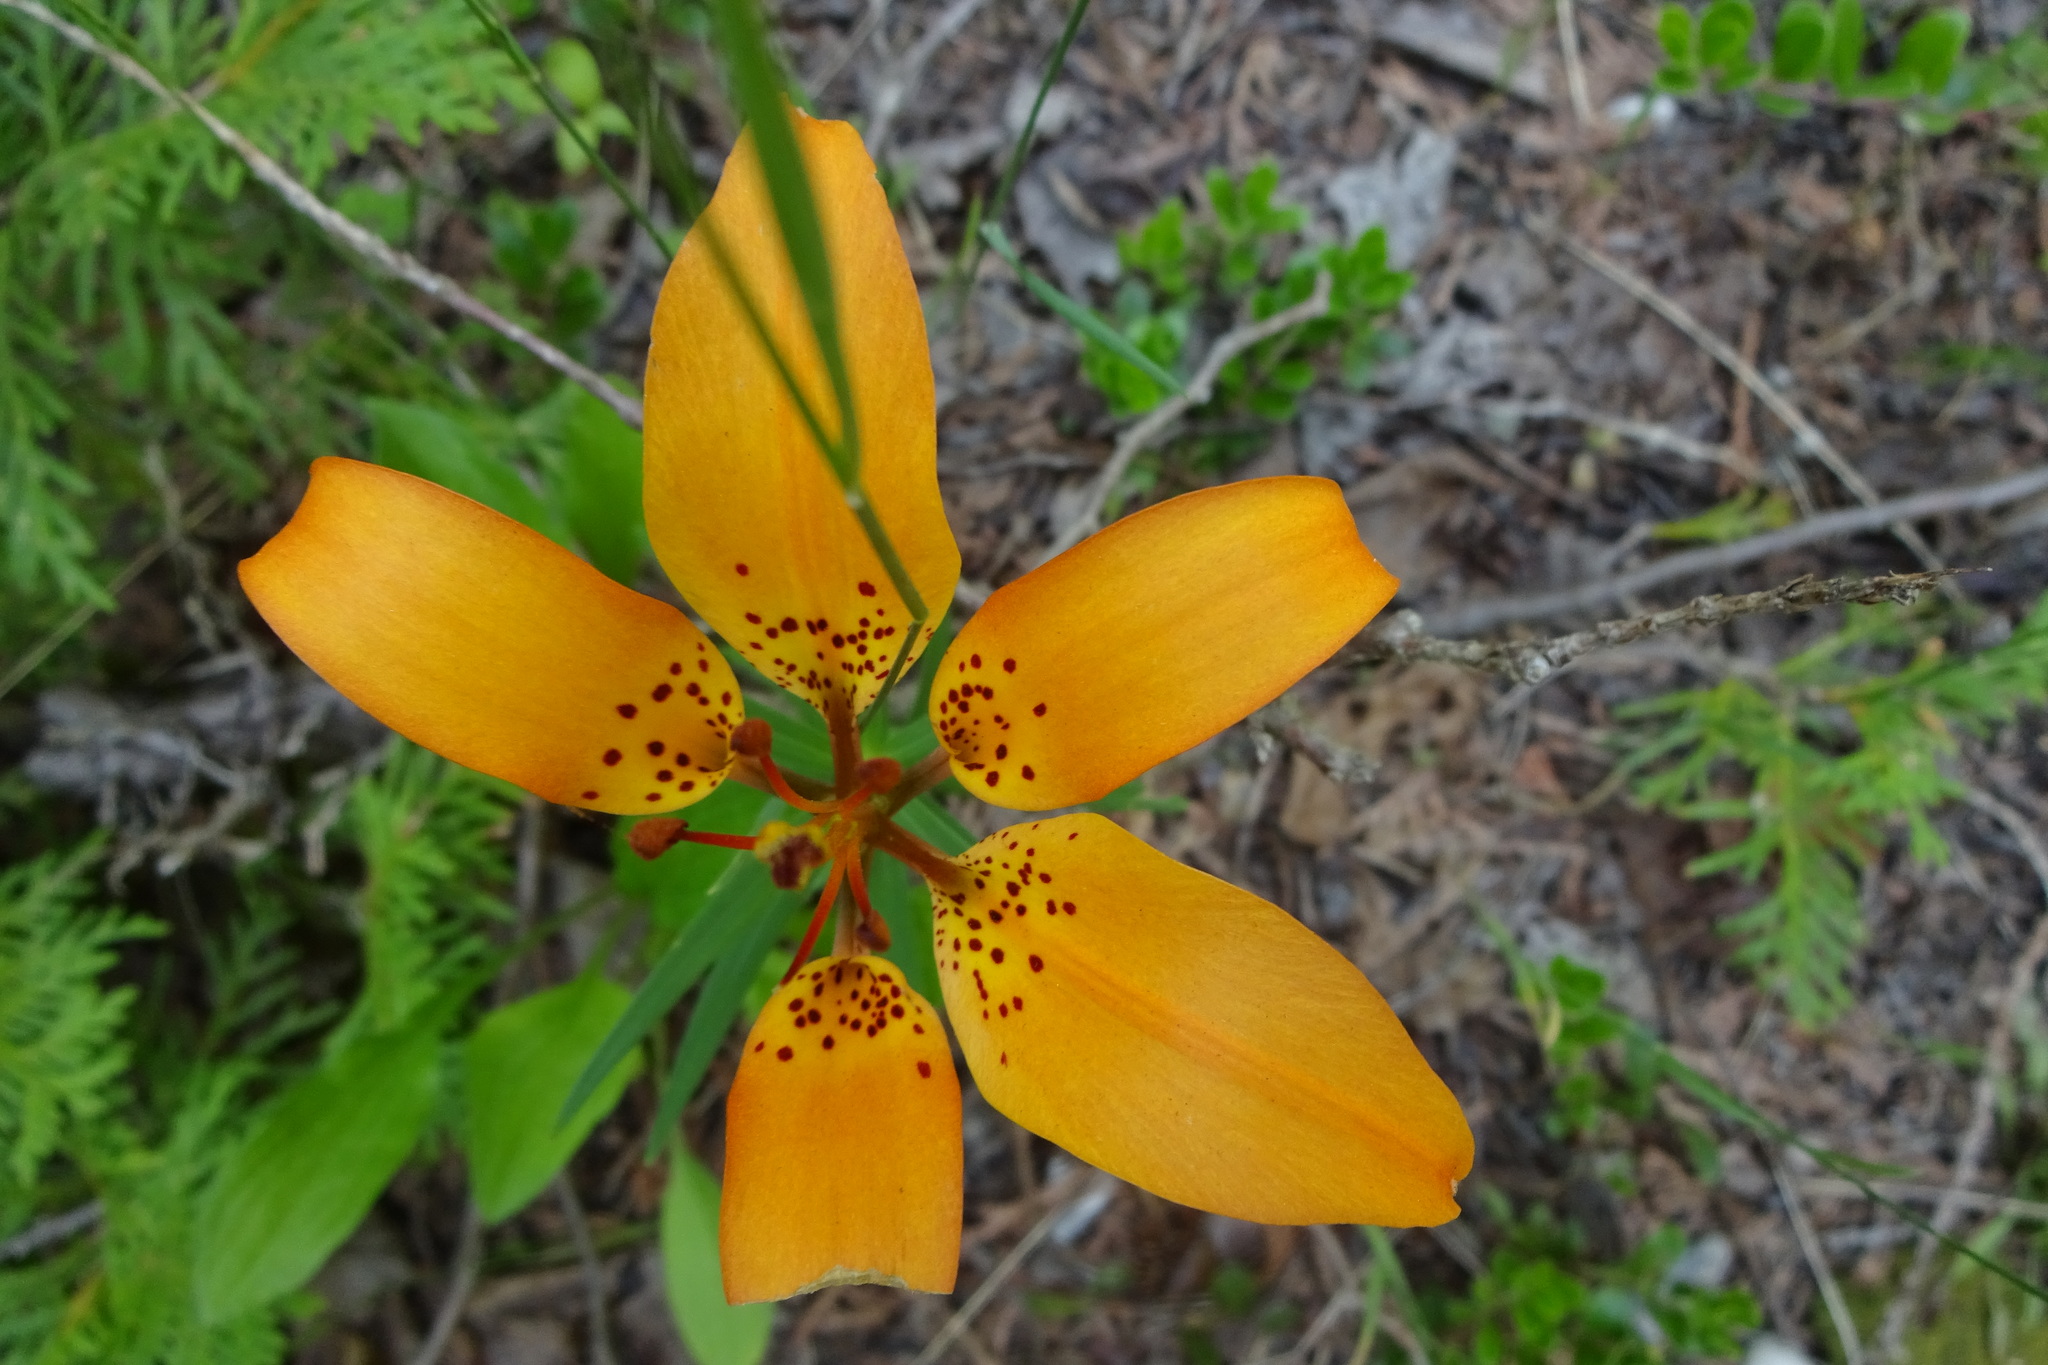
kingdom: Plantae
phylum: Tracheophyta
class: Liliopsida
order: Liliales
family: Liliaceae
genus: Lilium
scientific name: Lilium philadelphicum
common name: Red lily
